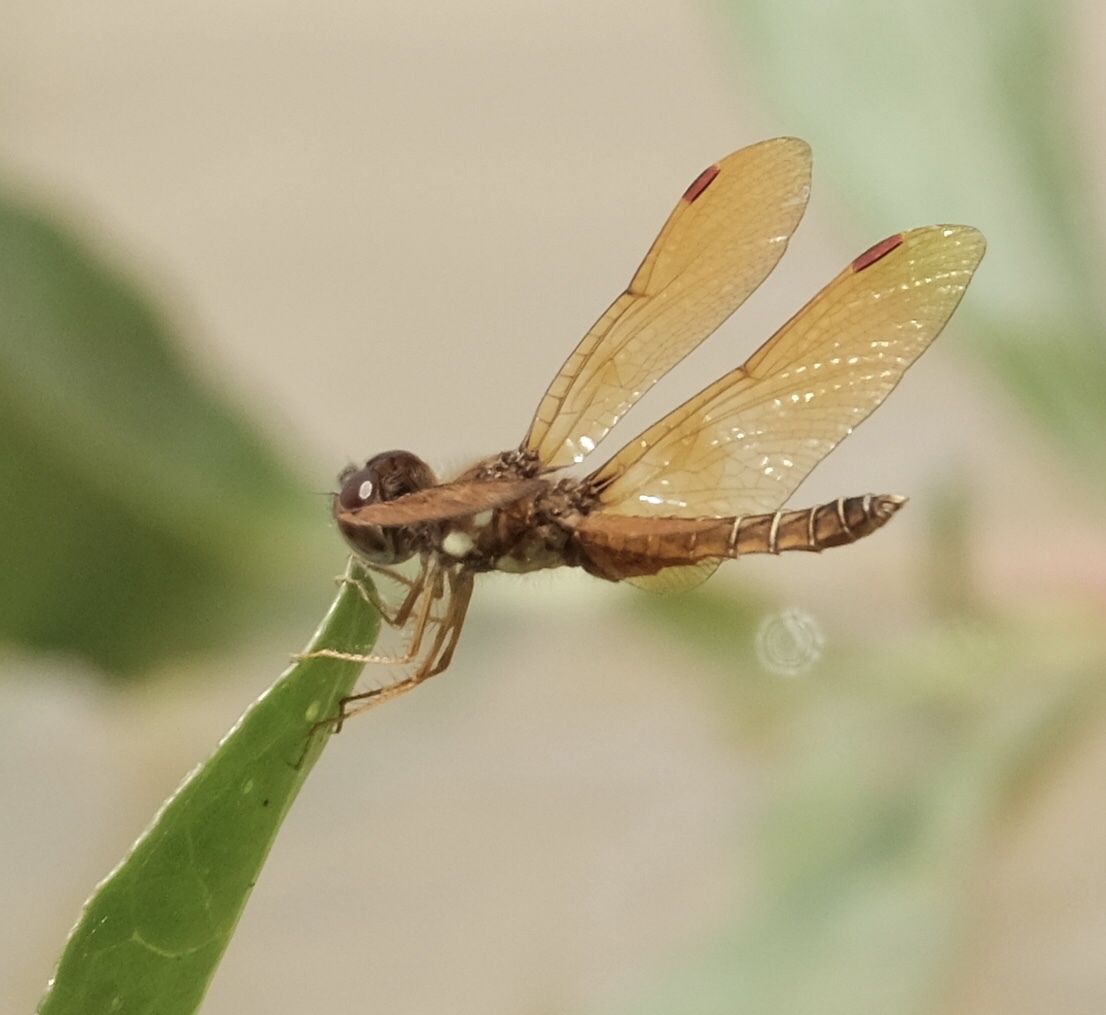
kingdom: Animalia
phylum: Arthropoda
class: Insecta
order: Odonata
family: Libellulidae
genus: Perithemis
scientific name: Perithemis tenera
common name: Eastern amberwing
